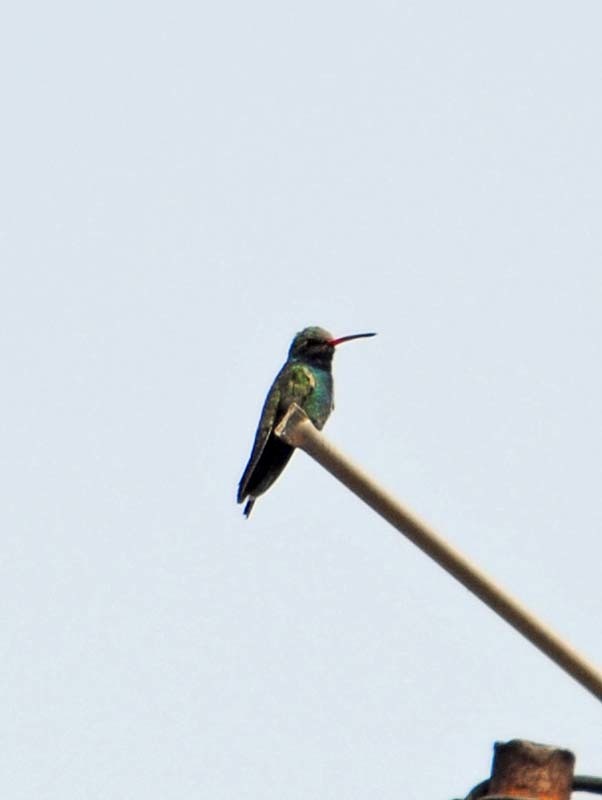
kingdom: Animalia
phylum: Chordata
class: Aves
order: Apodiformes
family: Trochilidae
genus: Cynanthus
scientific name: Cynanthus latirostris
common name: Broad-billed hummingbird
